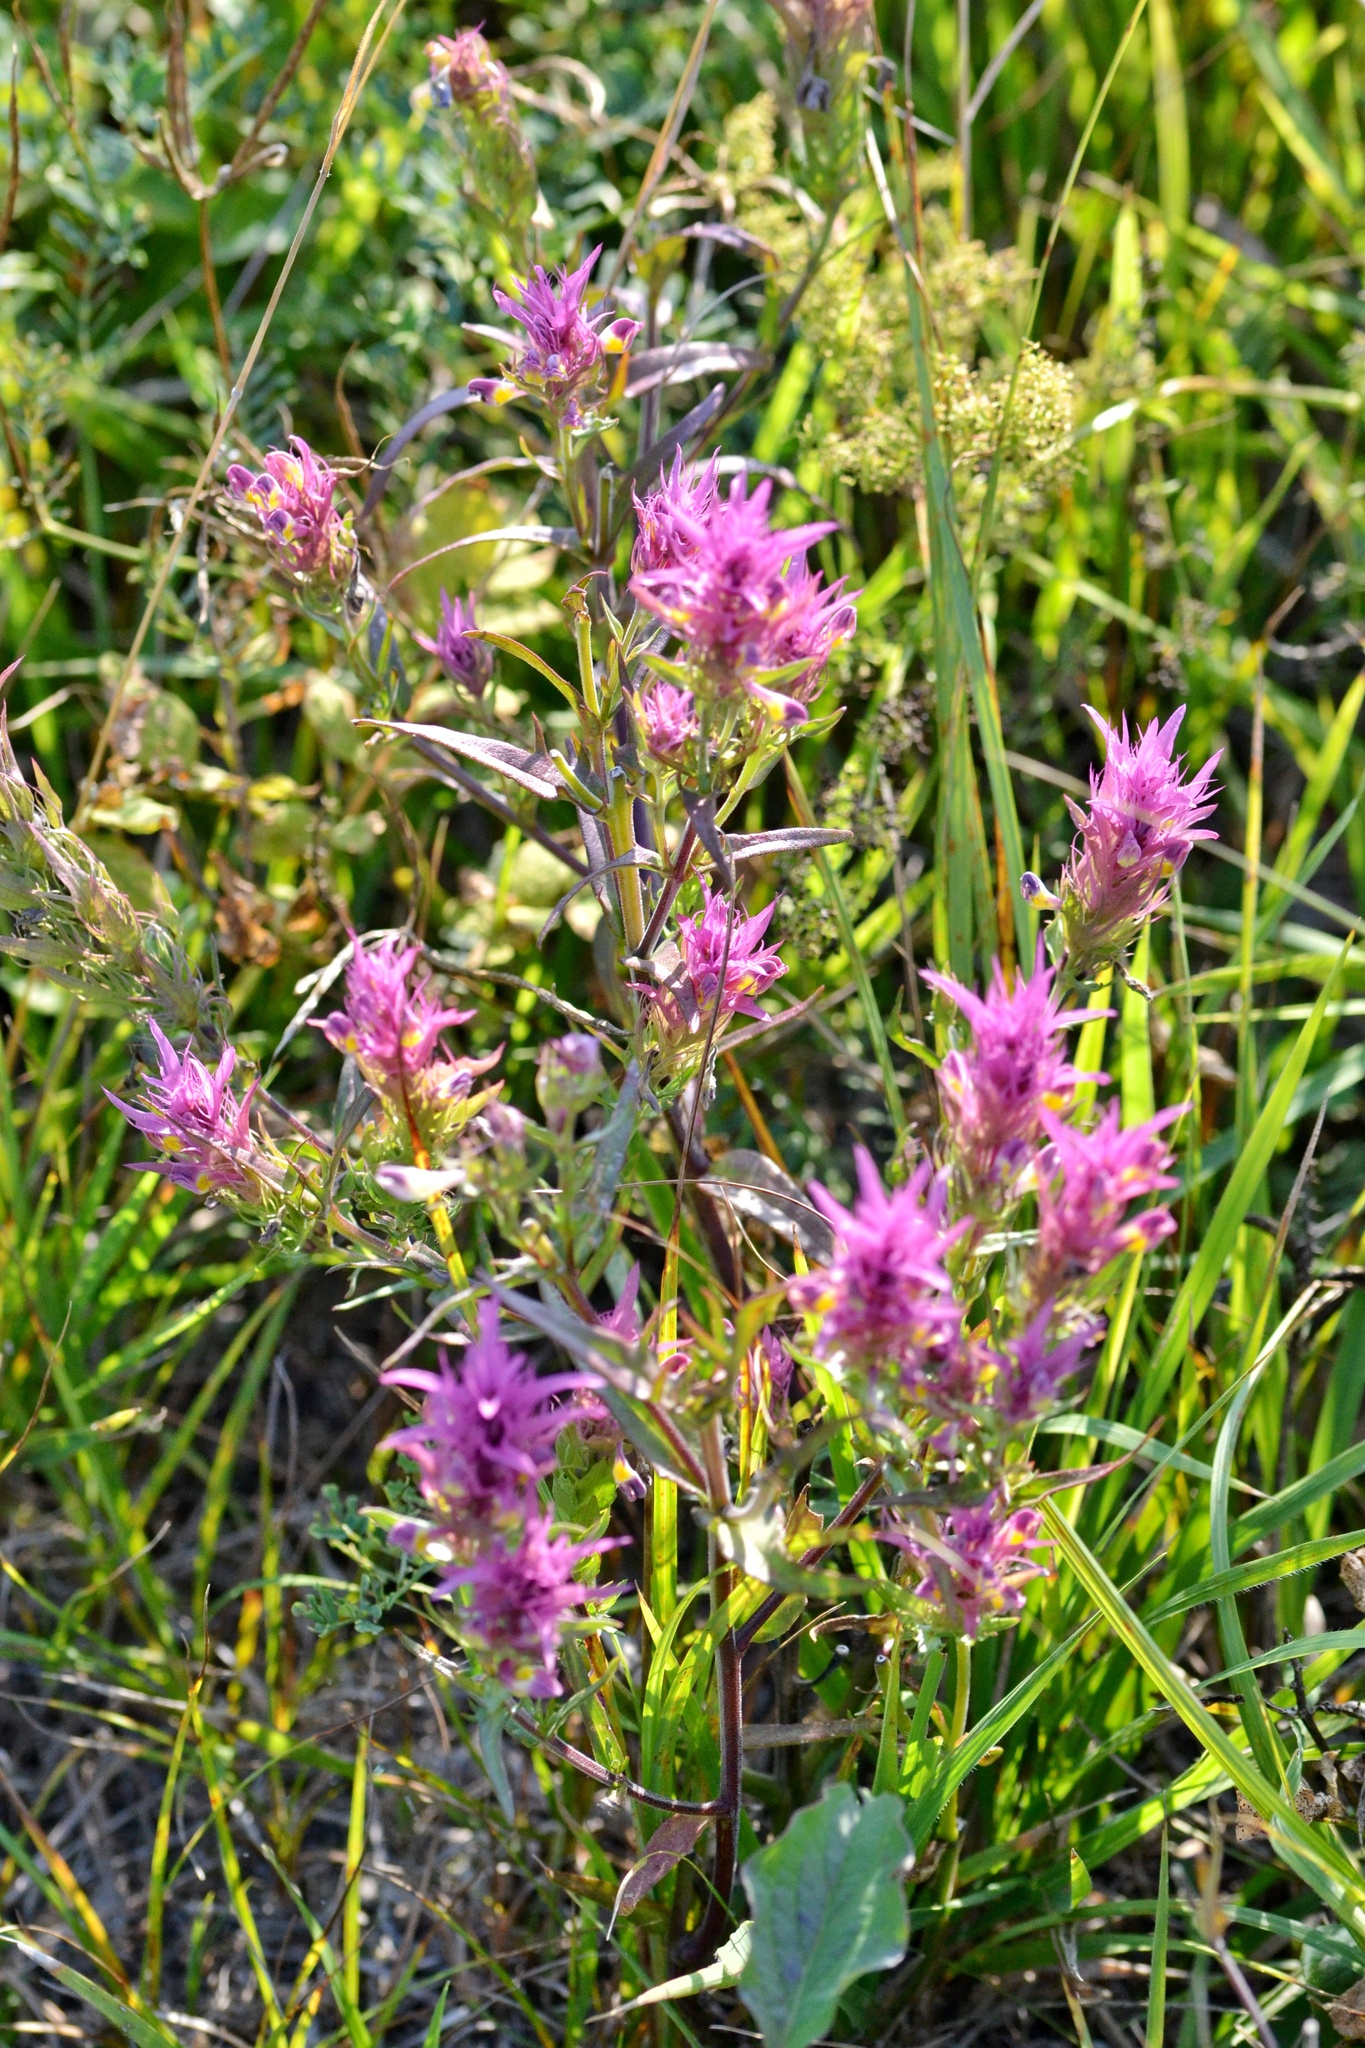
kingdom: Plantae
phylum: Tracheophyta
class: Magnoliopsida
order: Lamiales
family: Orobanchaceae
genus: Melampyrum
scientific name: Melampyrum arvense
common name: Field cow-wheat
